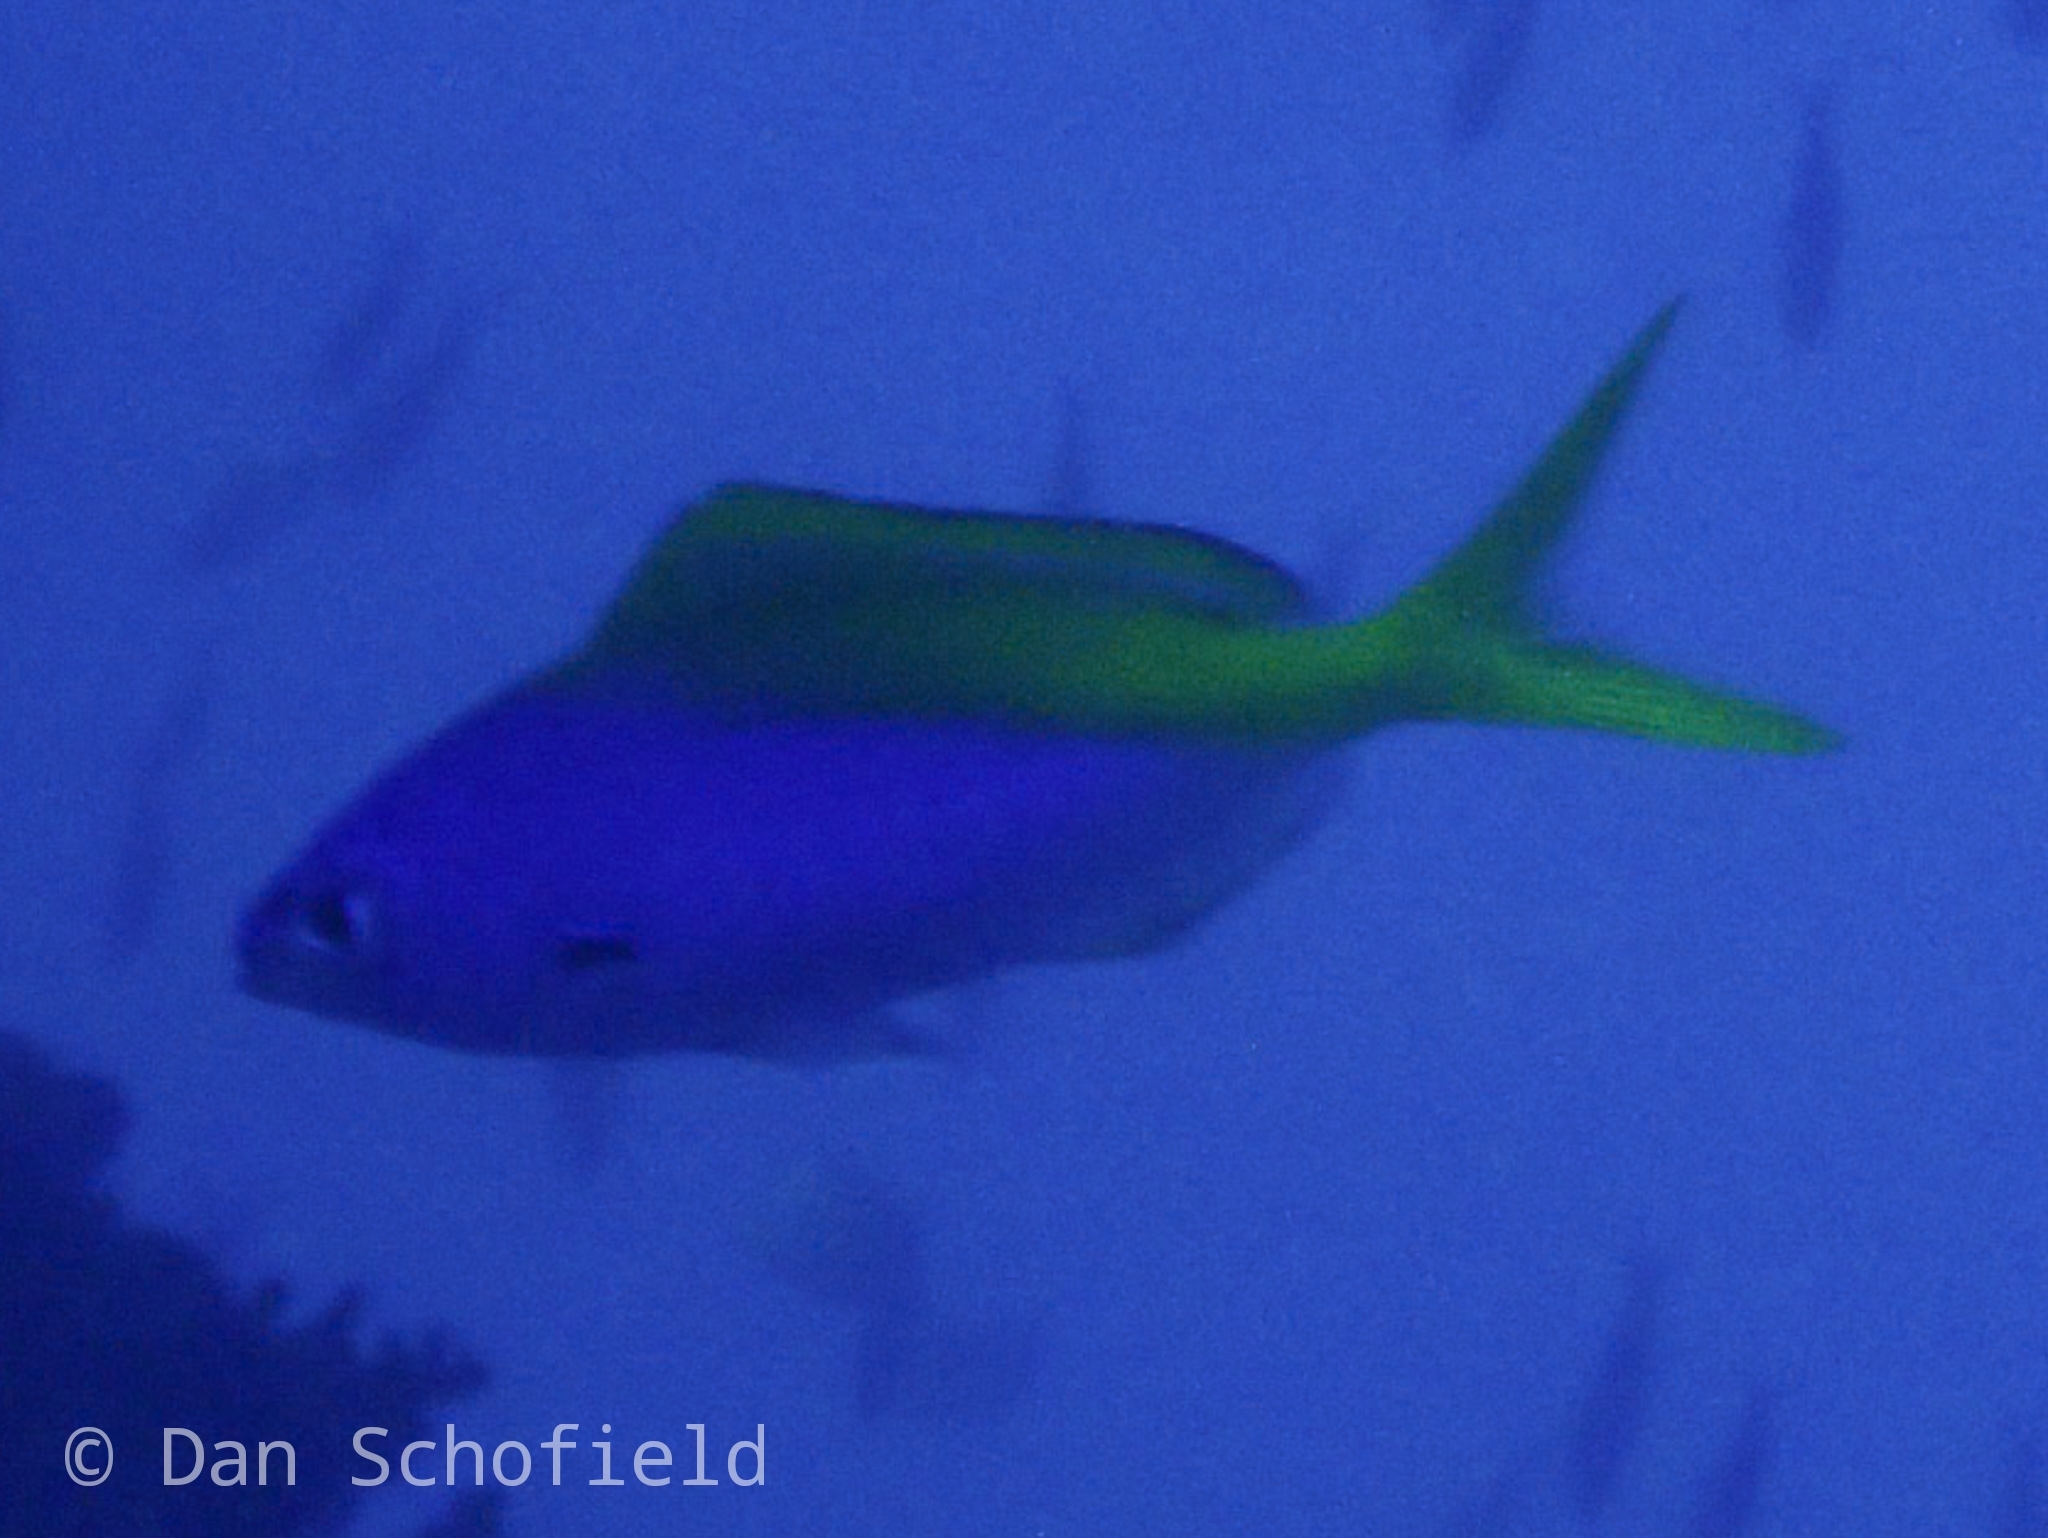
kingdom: Animalia
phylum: Chordata
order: Perciformes
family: Caesionidae
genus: Caesio
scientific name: Caesio teres
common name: Yellow and blueback fusilier
